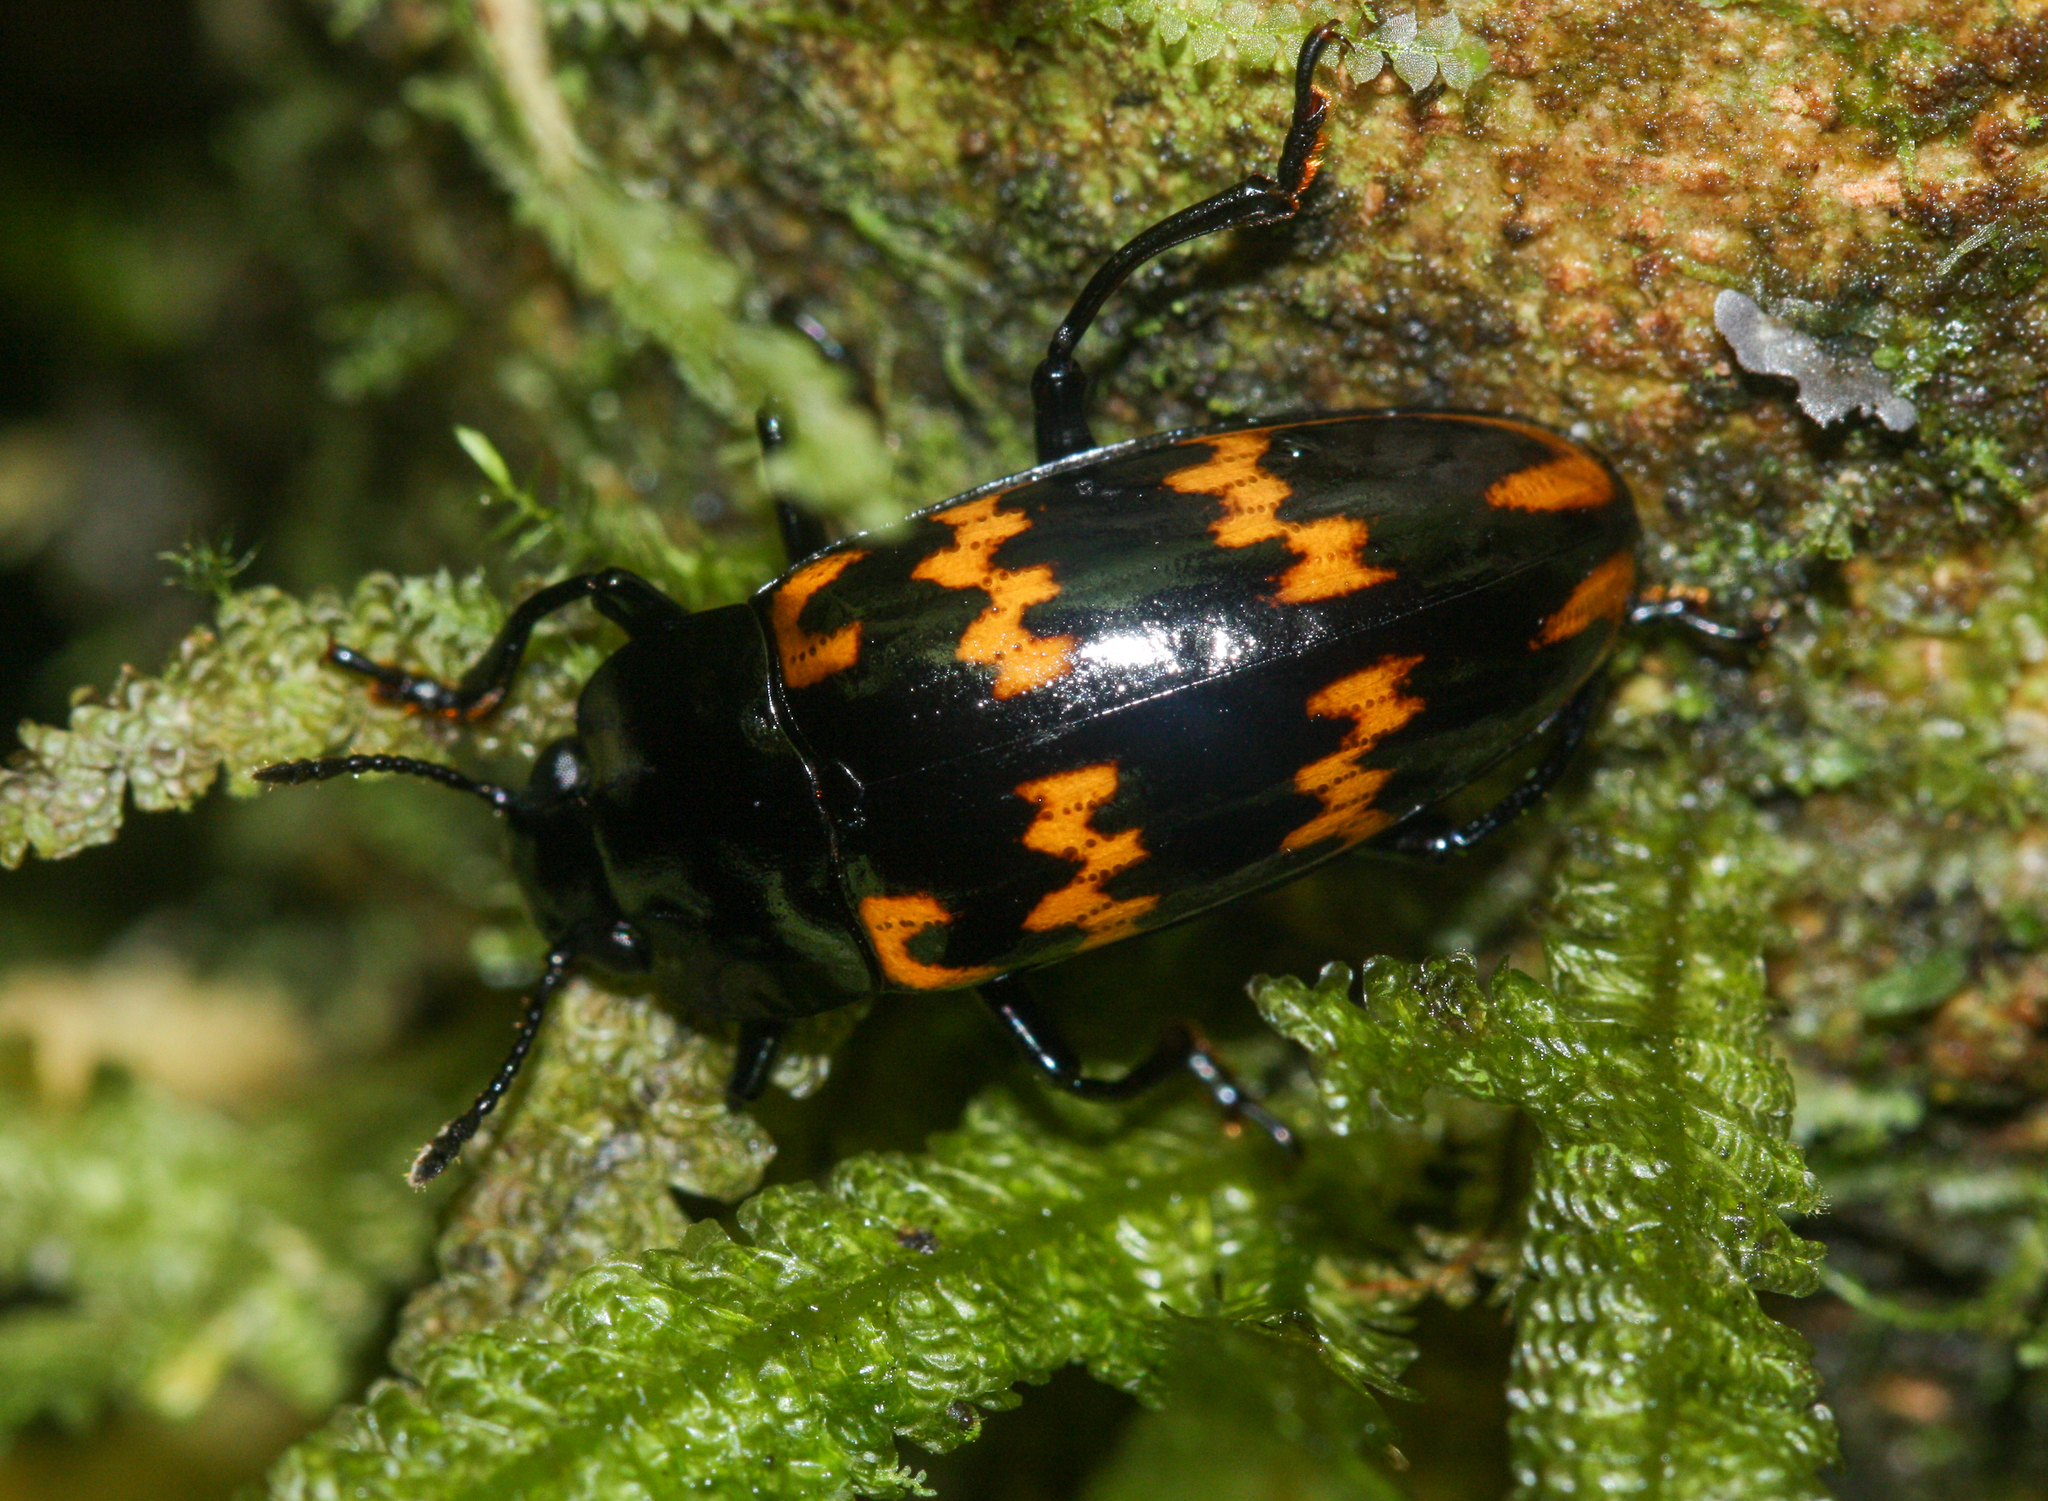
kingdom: Animalia
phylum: Arthropoda
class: Insecta
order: Coleoptera
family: Erotylidae
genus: Pselaphacus
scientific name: Pselaphacus curvipes
